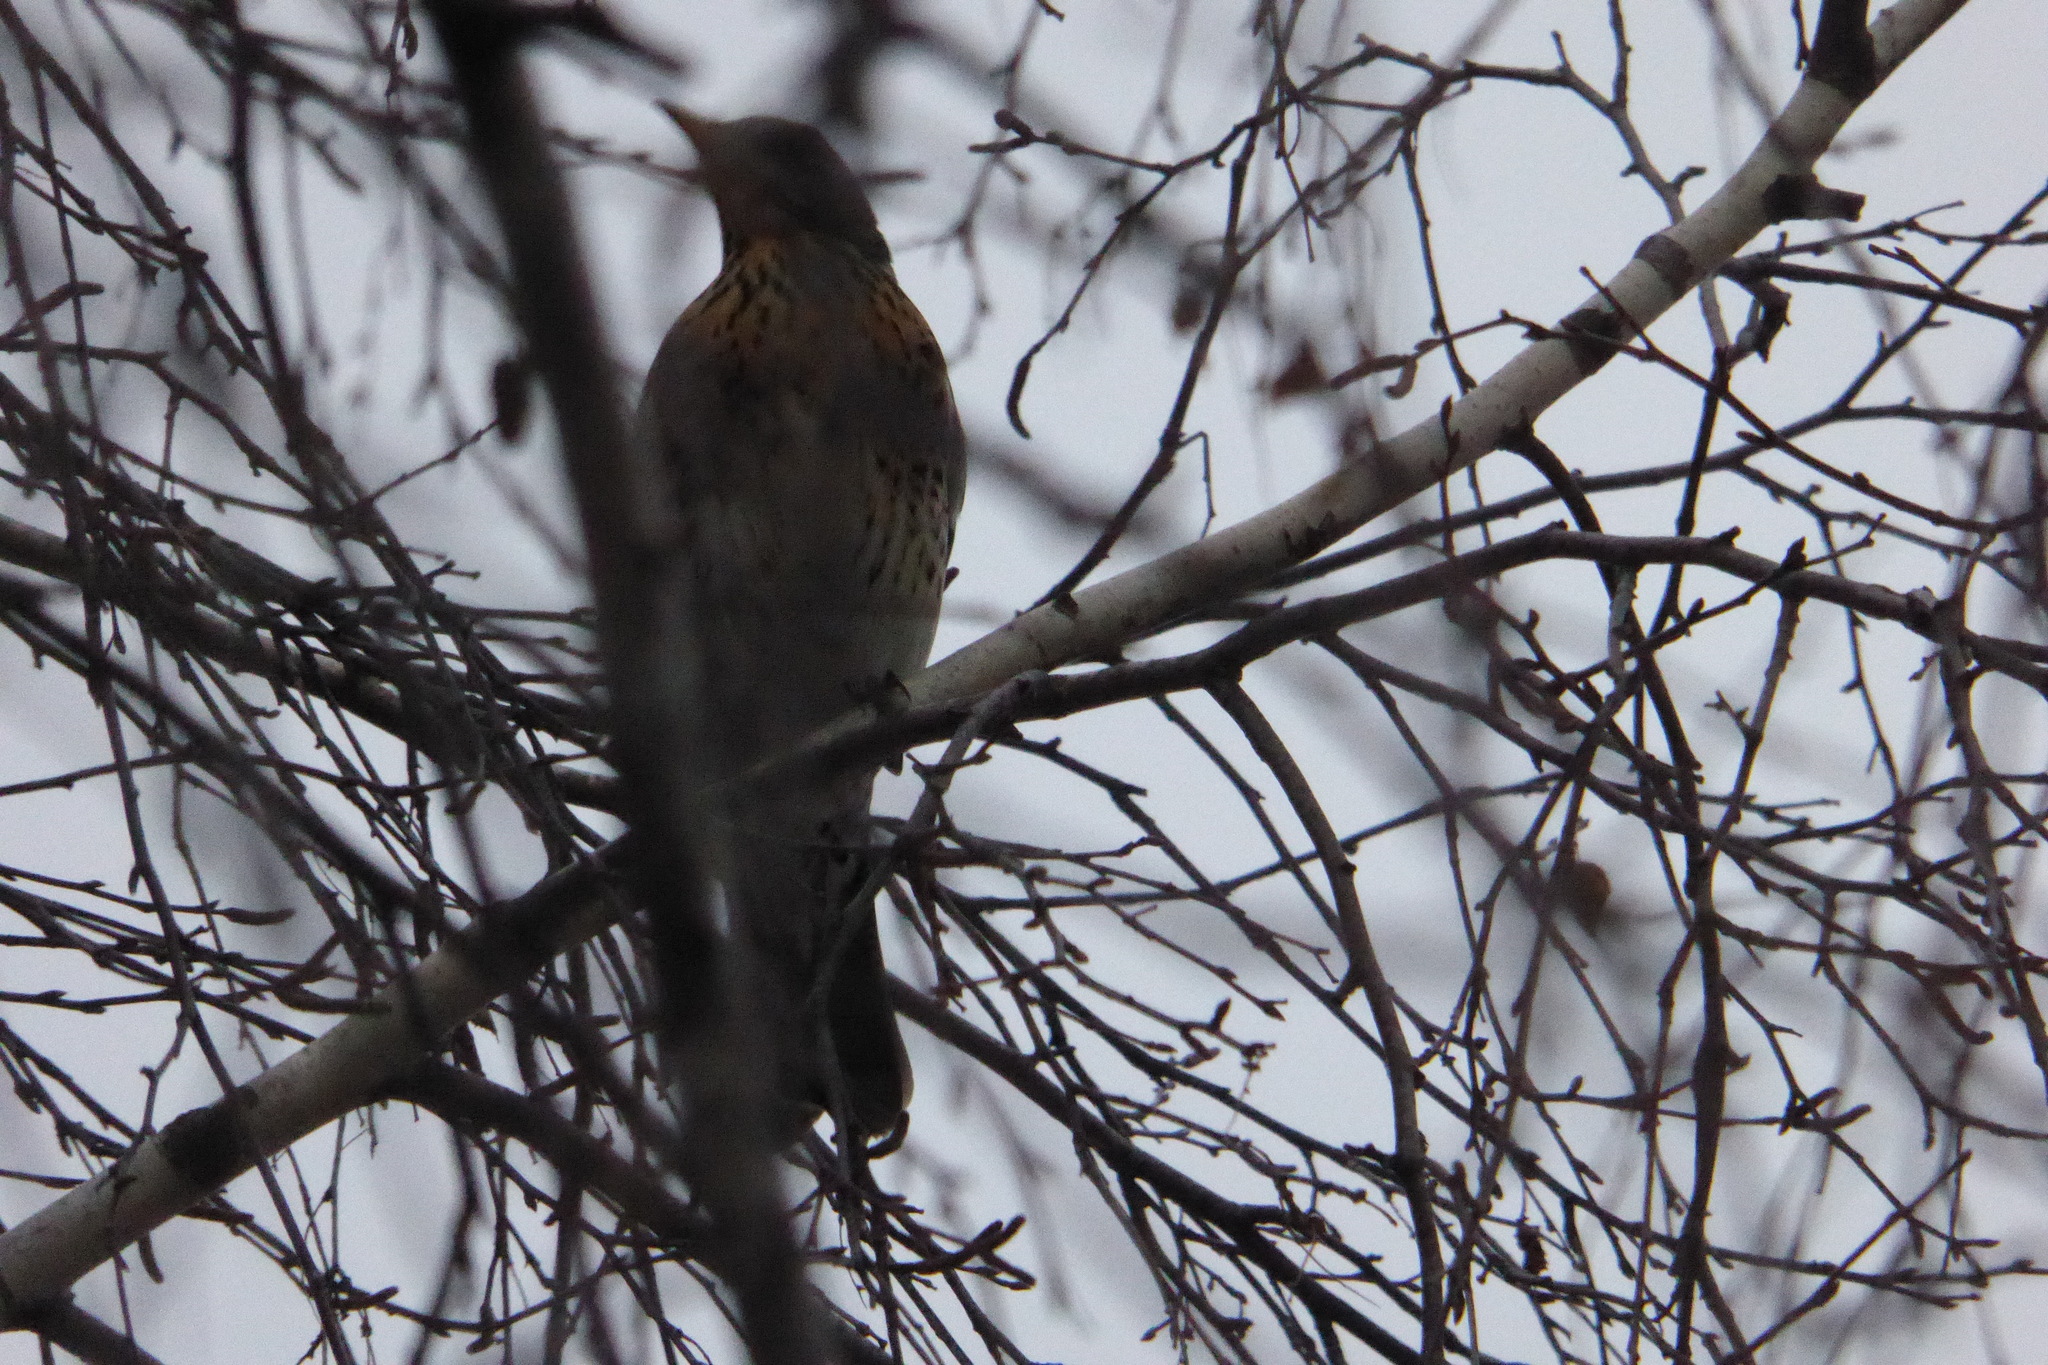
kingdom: Animalia
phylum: Chordata
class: Aves
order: Passeriformes
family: Turdidae
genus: Turdus
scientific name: Turdus pilaris
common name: Fieldfare
